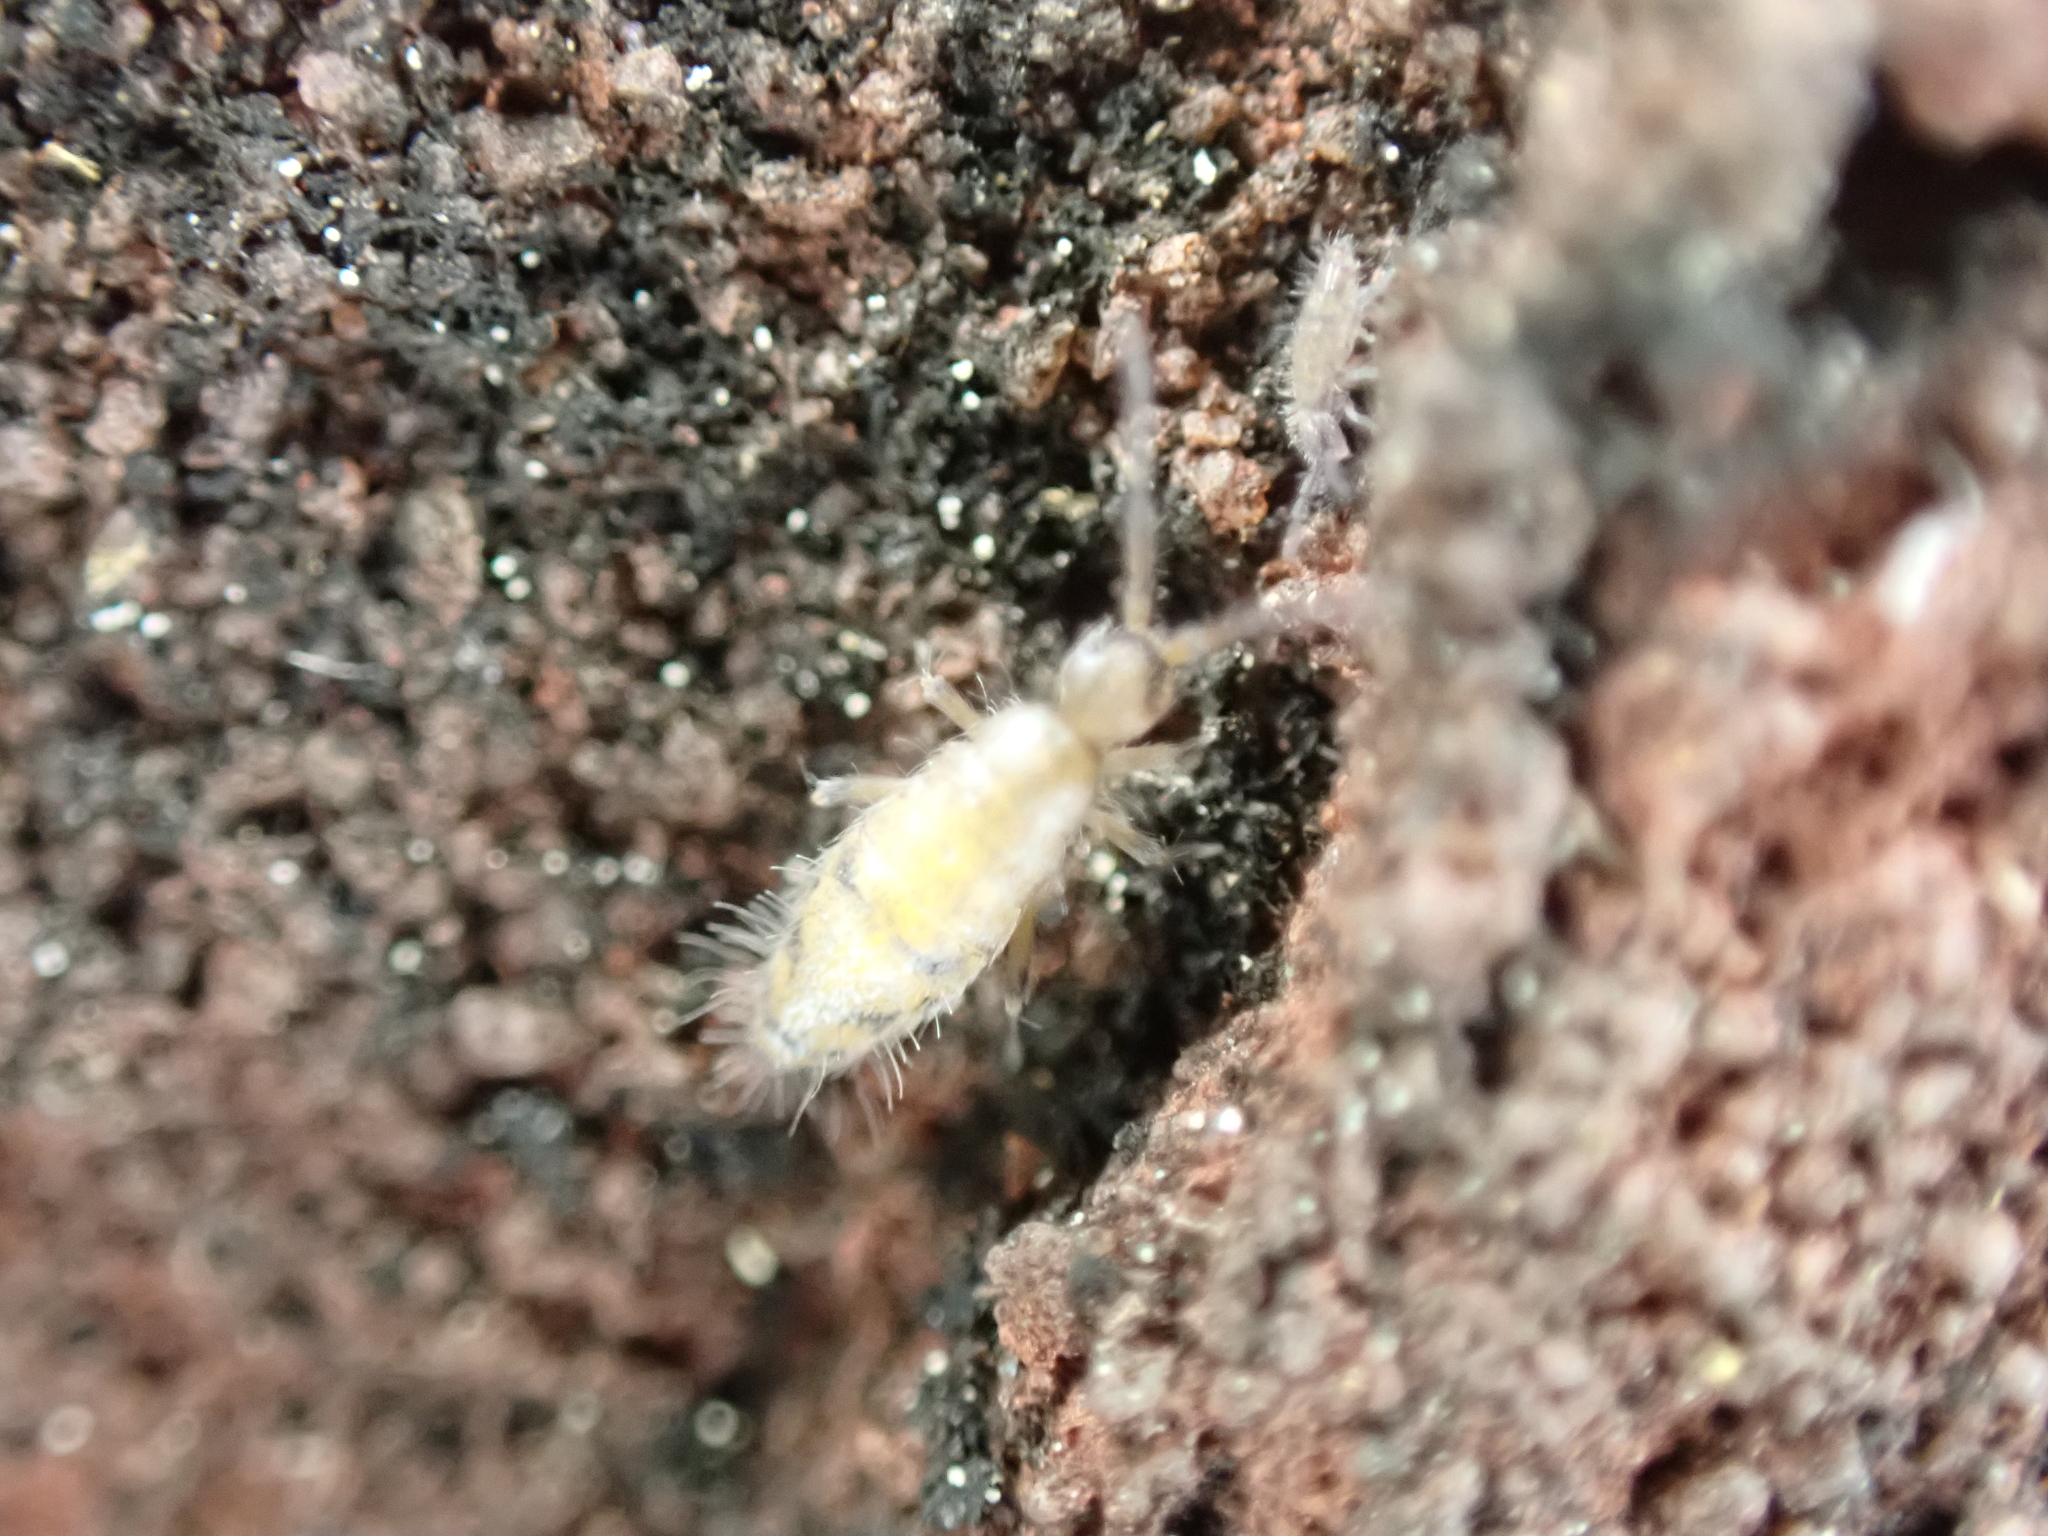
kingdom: Animalia
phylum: Arthropoda
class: Collembola
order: Entomobryomorpha
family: Entomobryidae
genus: Willowsia
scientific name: Willowsia nigromaculata
